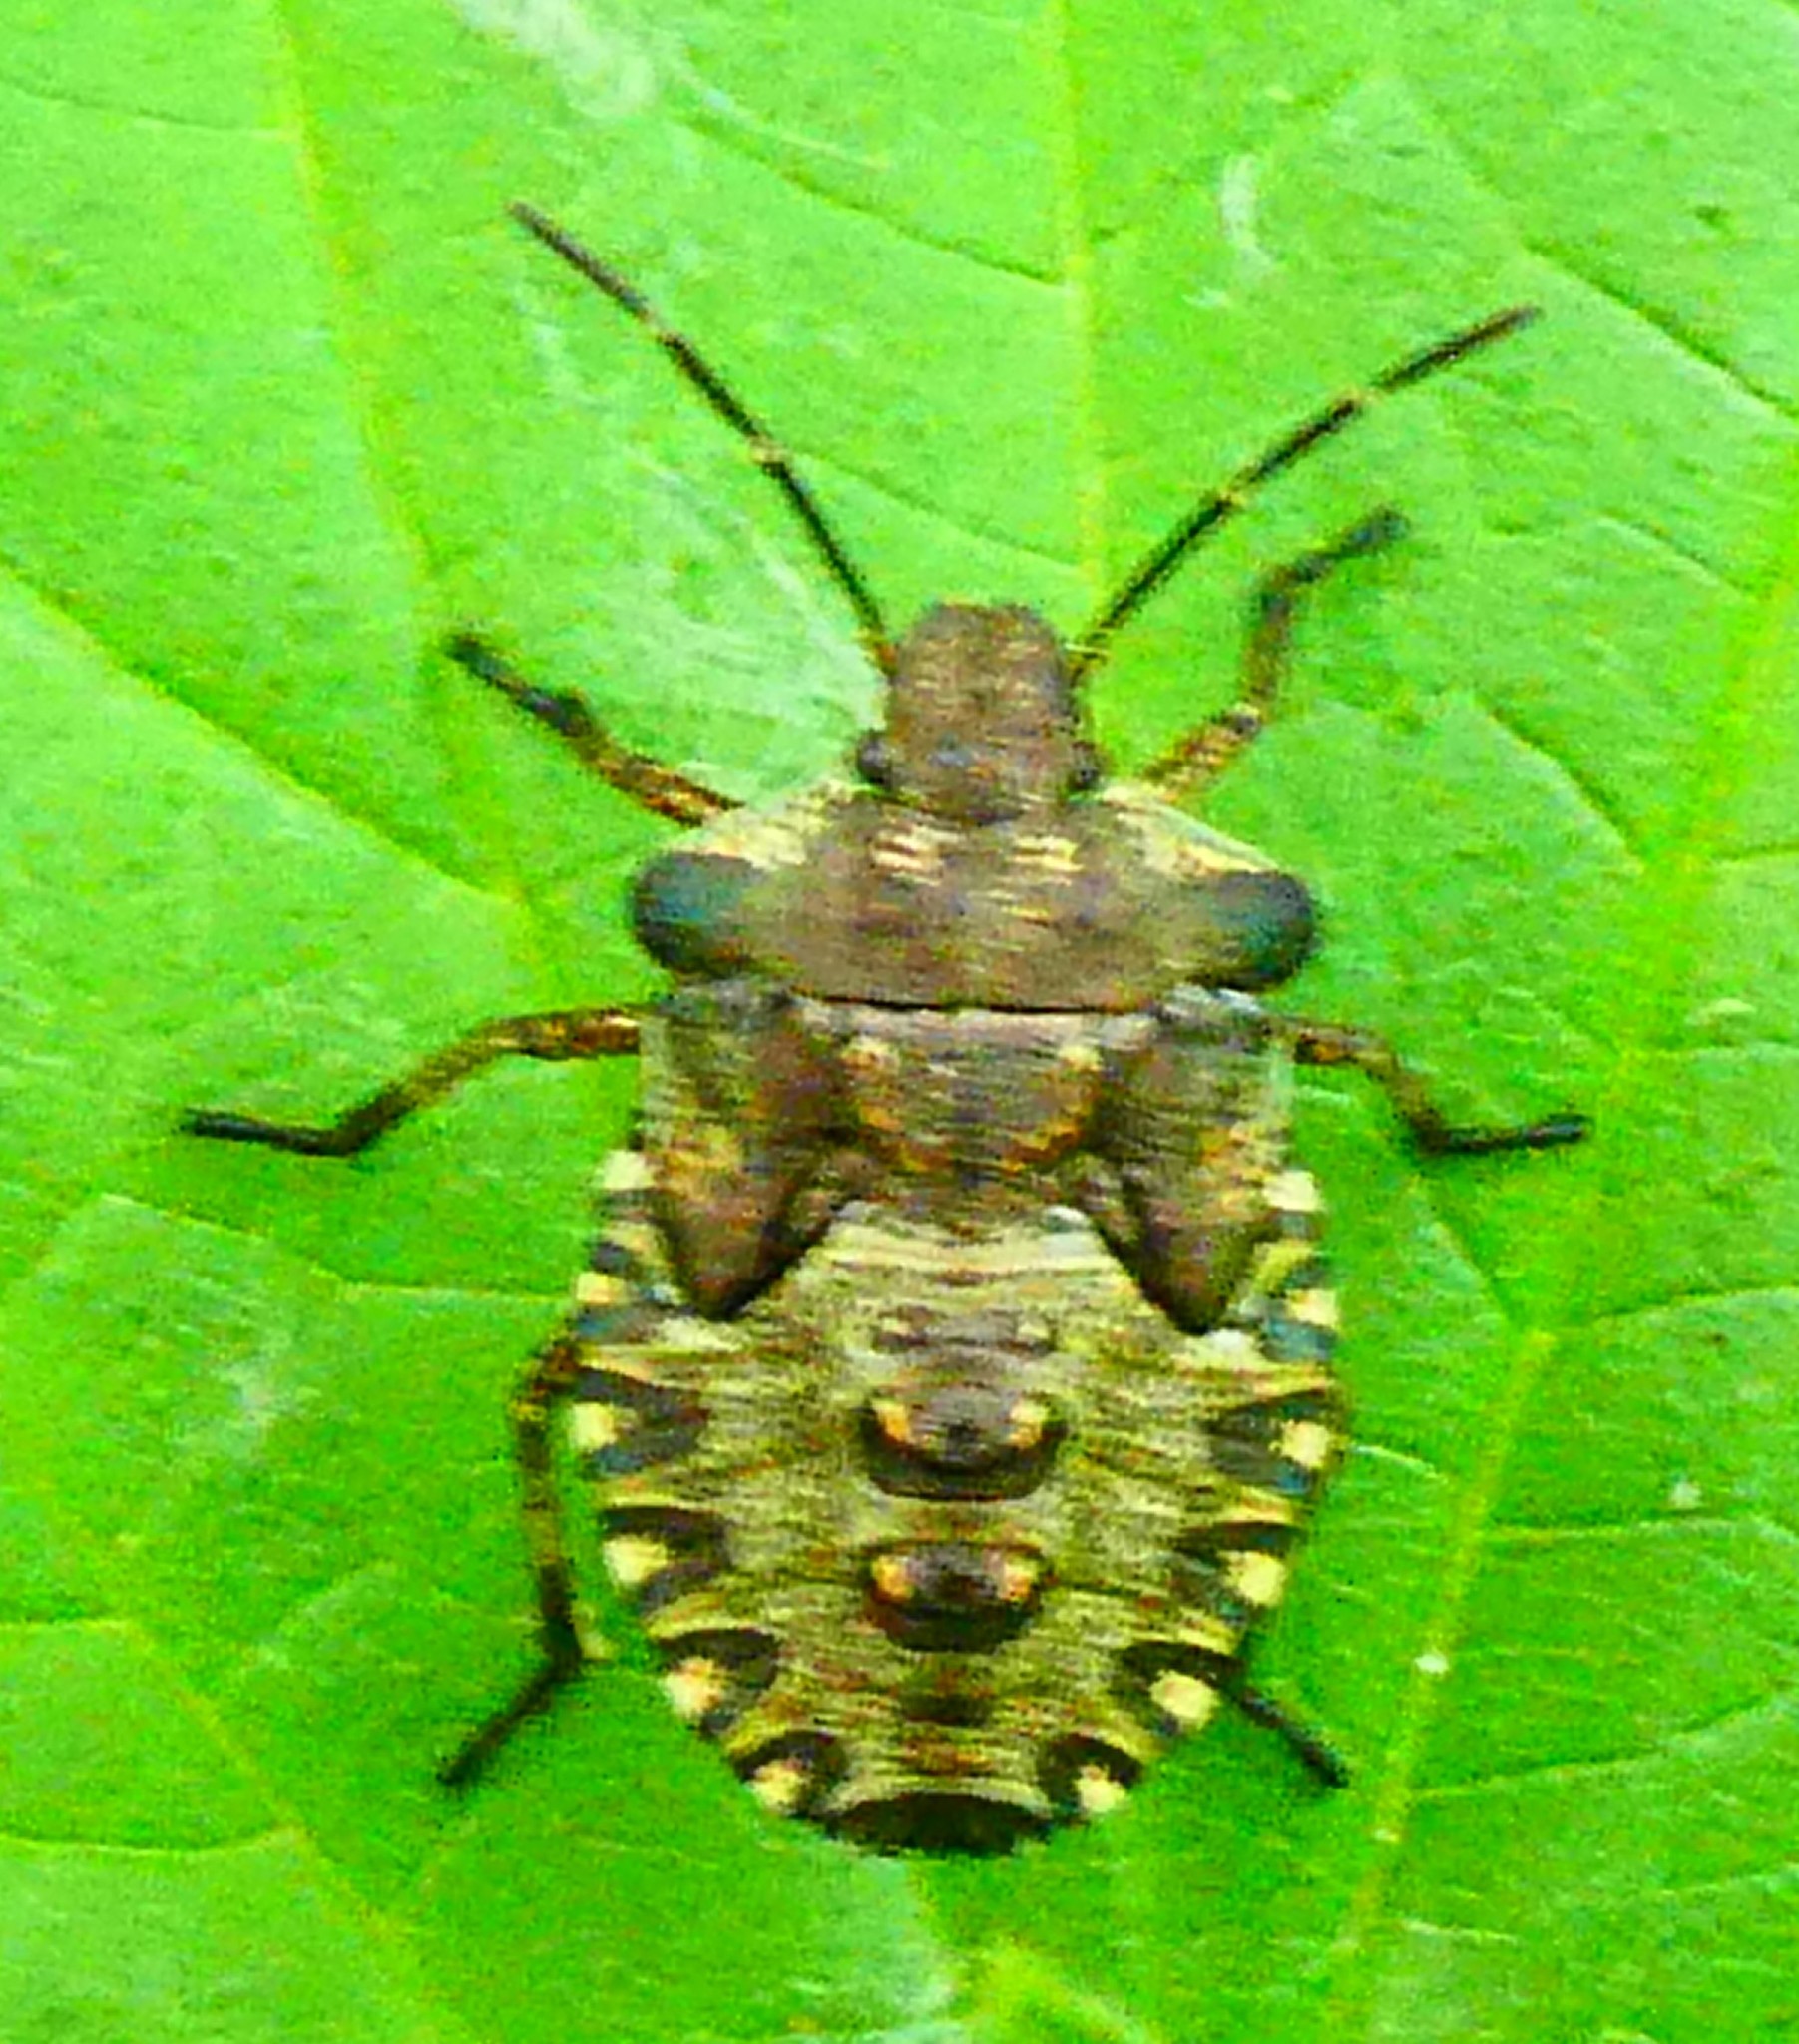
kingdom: Animalia
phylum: Arthropoda
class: Insecta
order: Hemiptera
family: Pentatomidae
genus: Pentatoma
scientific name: Pentatoma rufipes
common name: Forest bug
